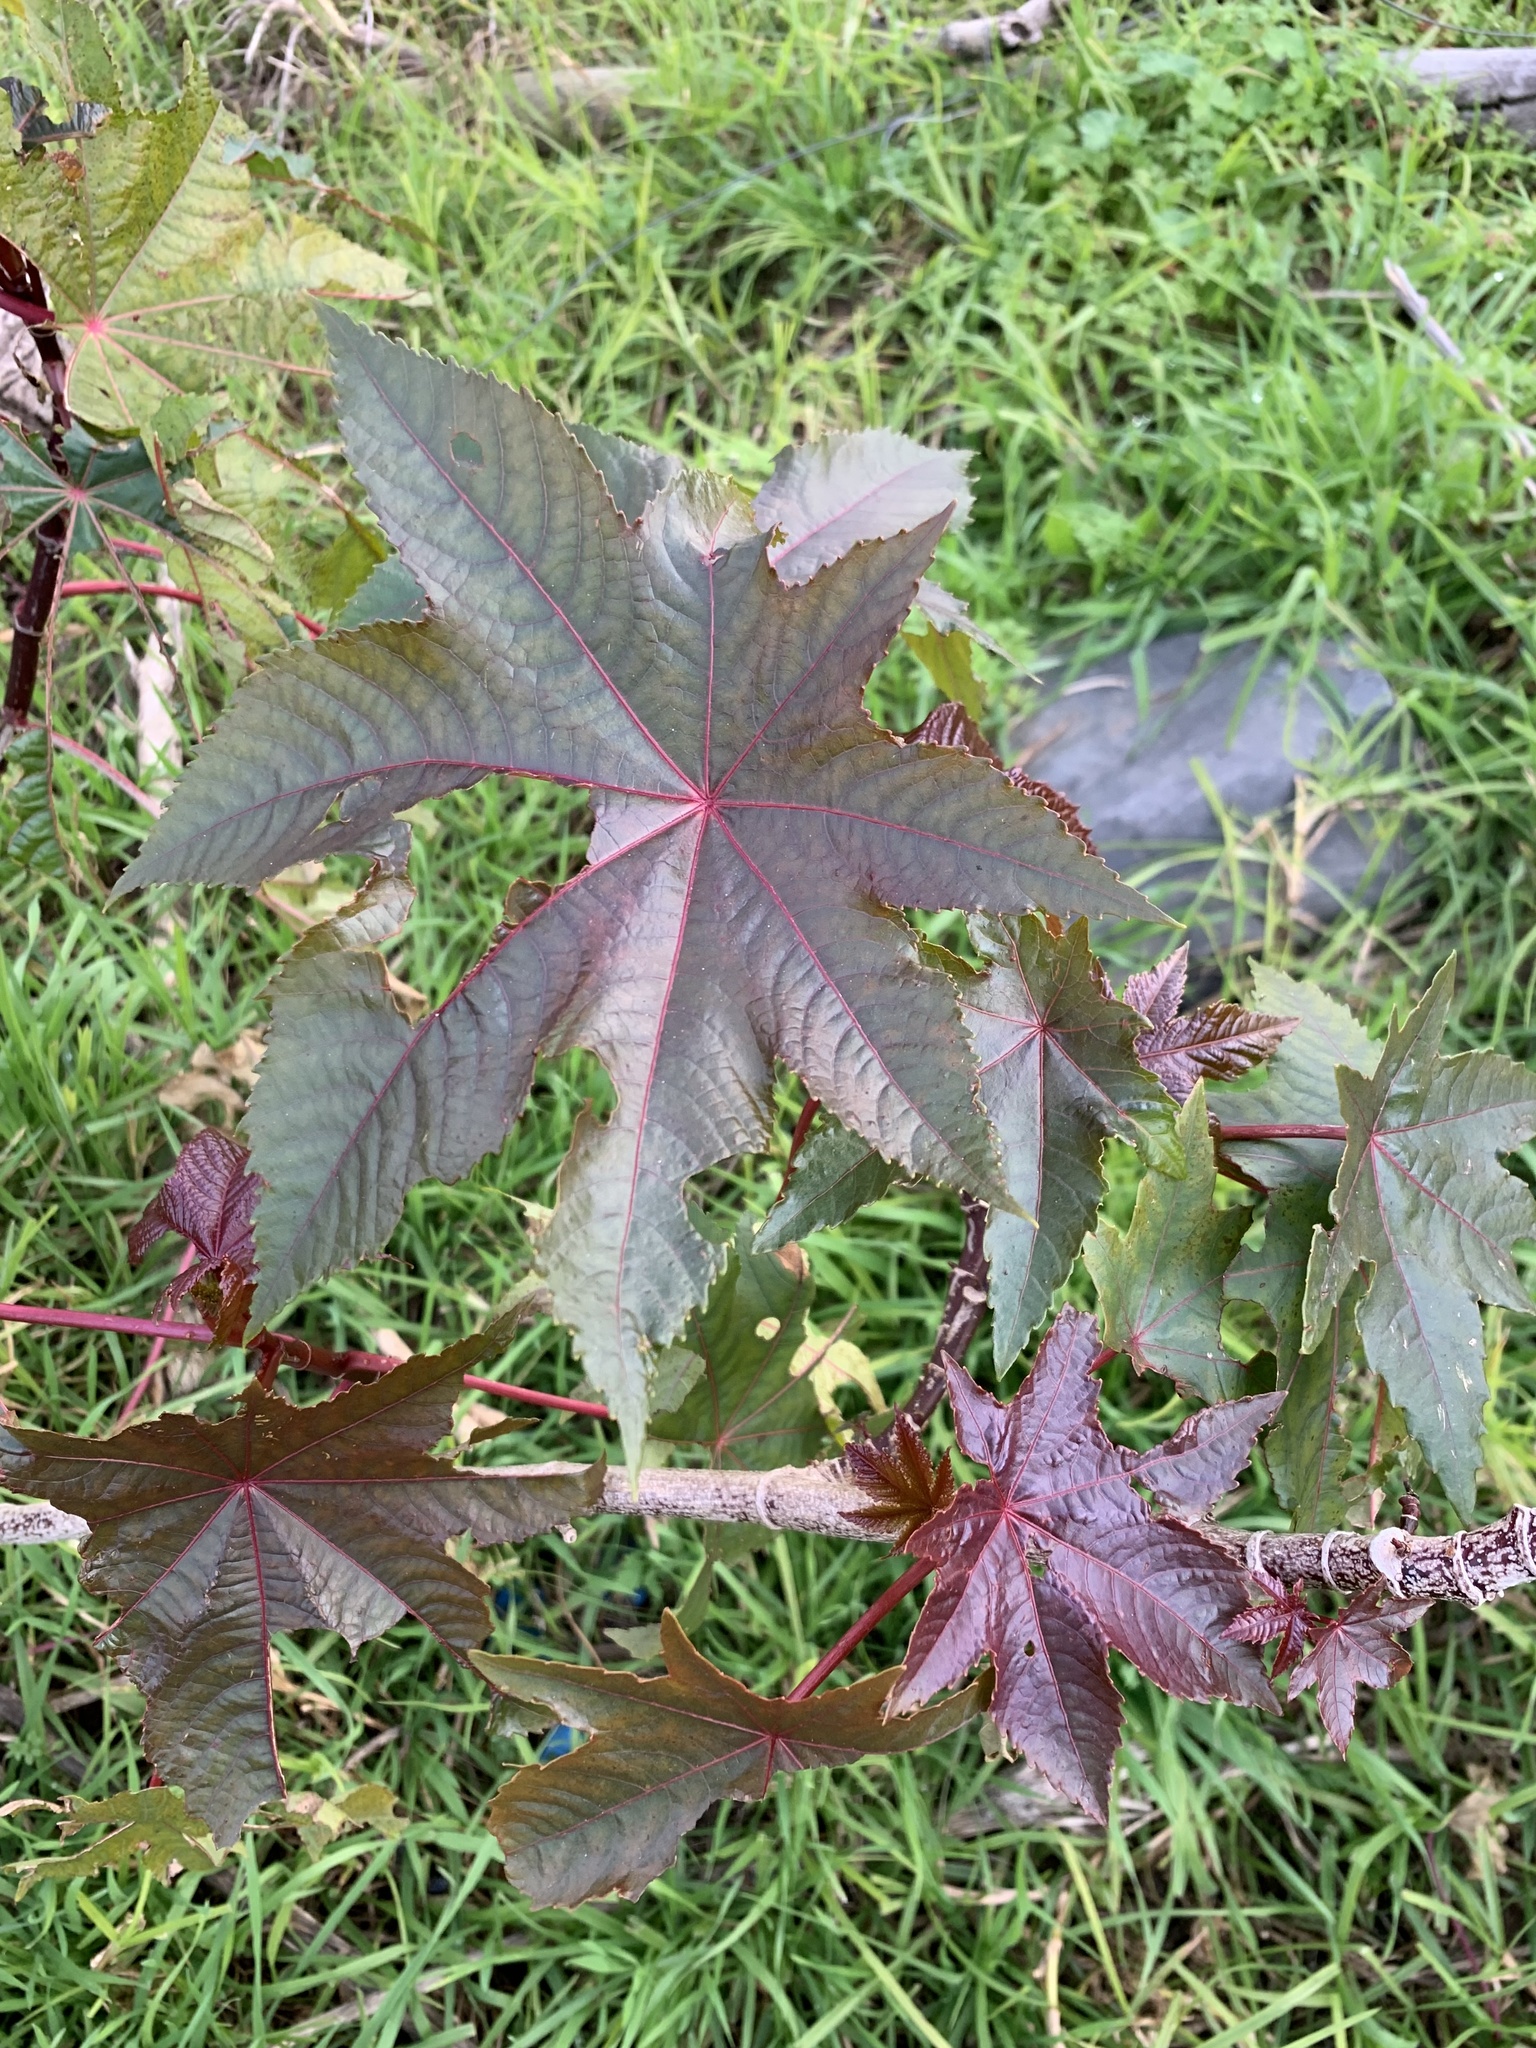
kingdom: Plantae
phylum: Tracheophyta
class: Magnoliopsida
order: Malpighiales
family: Euphorbiaceae
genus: Ricinus
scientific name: Ricinus communis
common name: Castor-oil-plant
